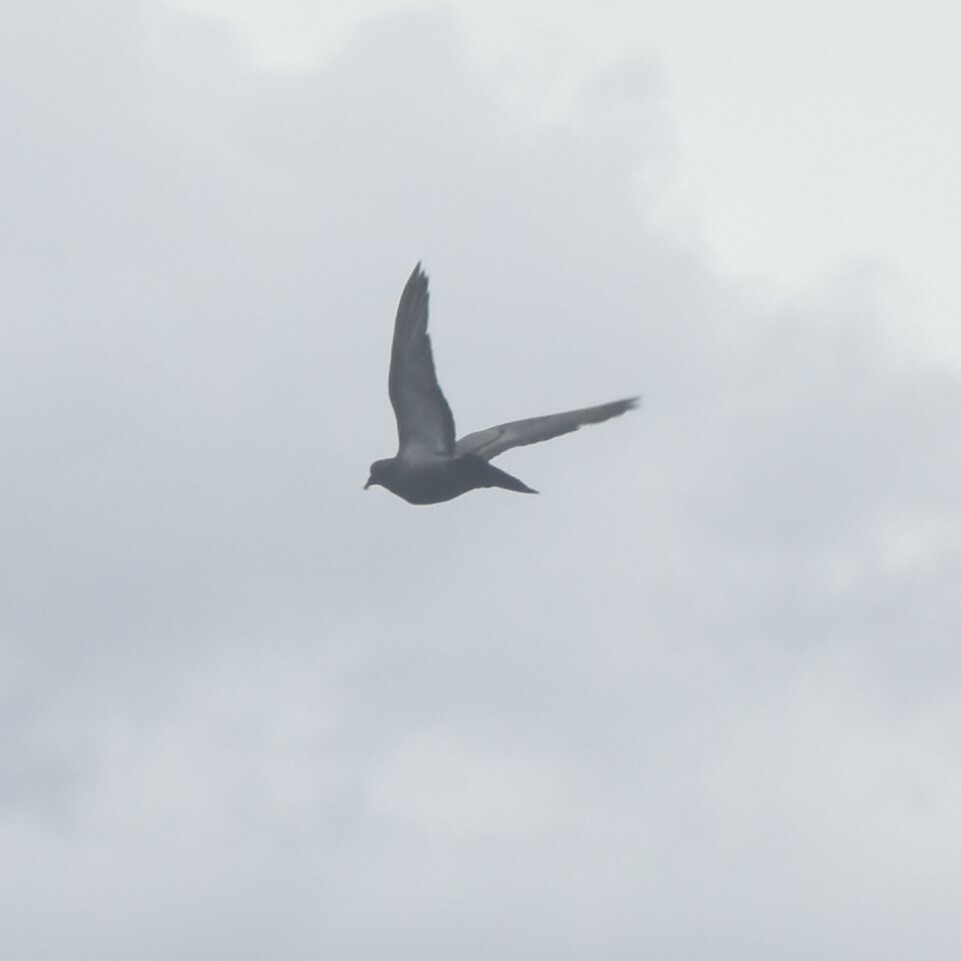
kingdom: Animalia
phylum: Chordata
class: Aves
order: Columbiformes
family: Columbidae
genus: Columba
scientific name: Columba livia
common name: Rock pigeon
